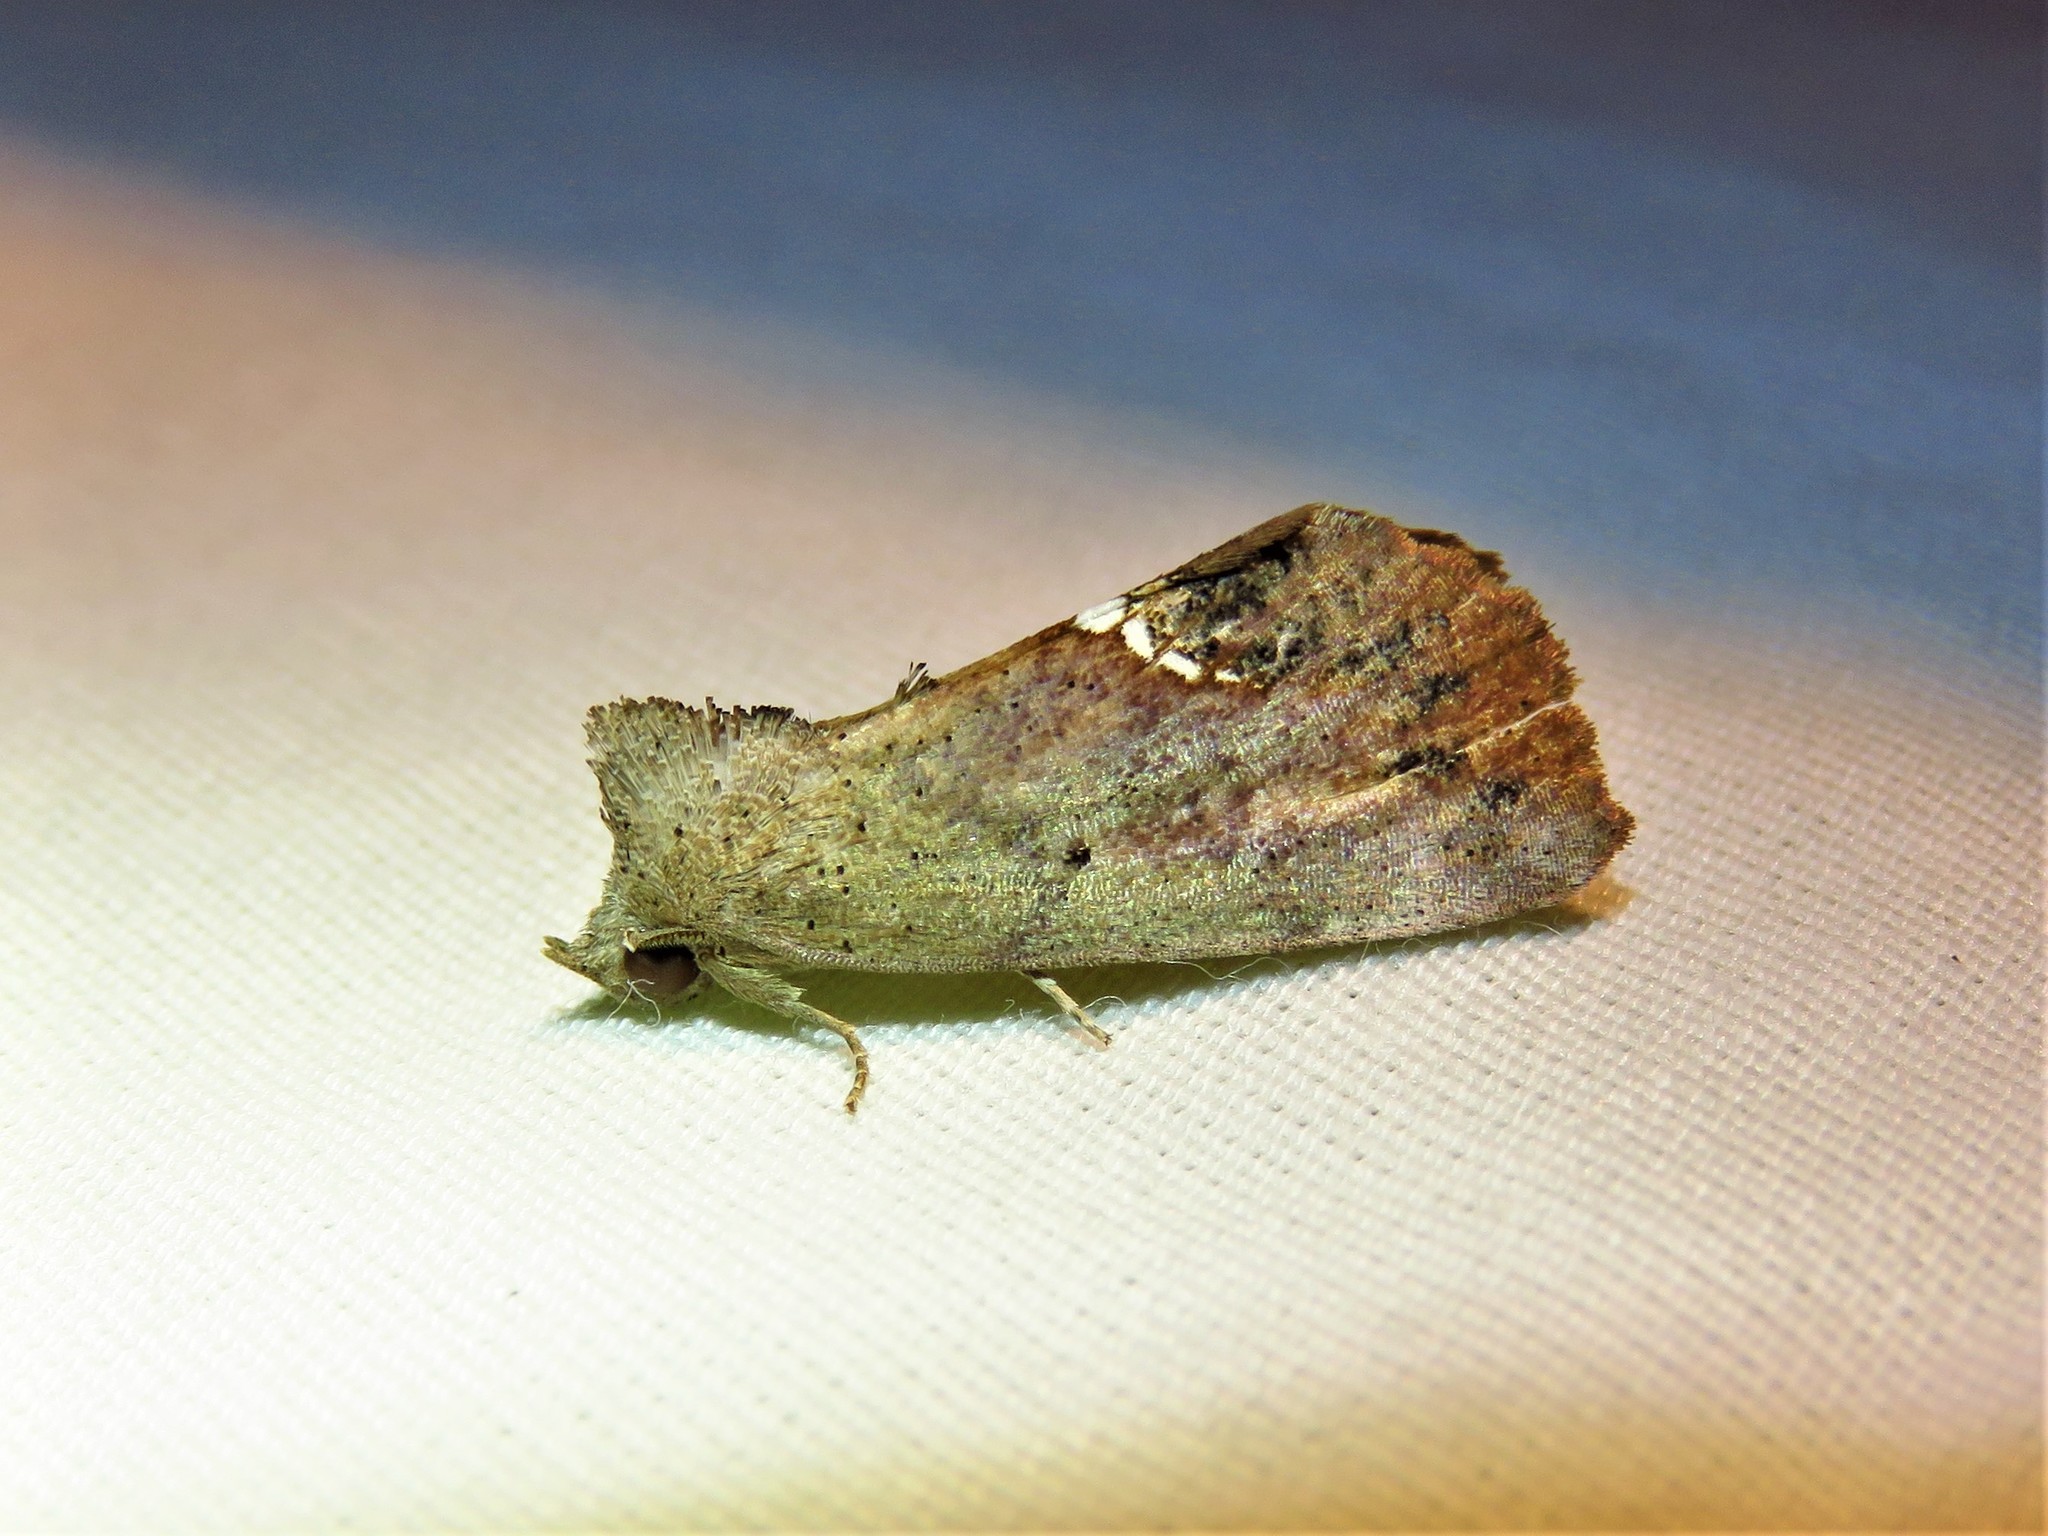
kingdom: Animalia
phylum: Arthropoda
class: Insecta
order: Lepidoptera
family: Erebidae
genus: Hypsoropha
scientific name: Hypsoropha hormos
